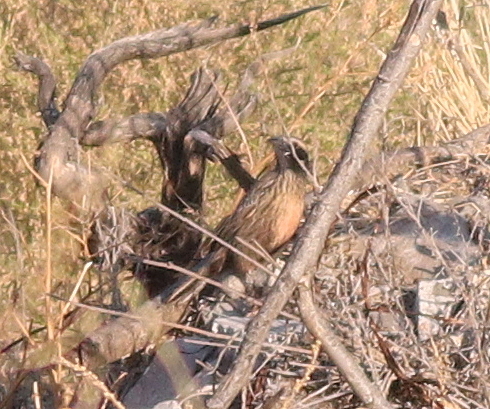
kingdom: Animalia
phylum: Chordata
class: Aves
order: Passeriformes
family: Icteridae
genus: Sturnella
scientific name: Sturnella loyca
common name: Long-tailed meadowlark
